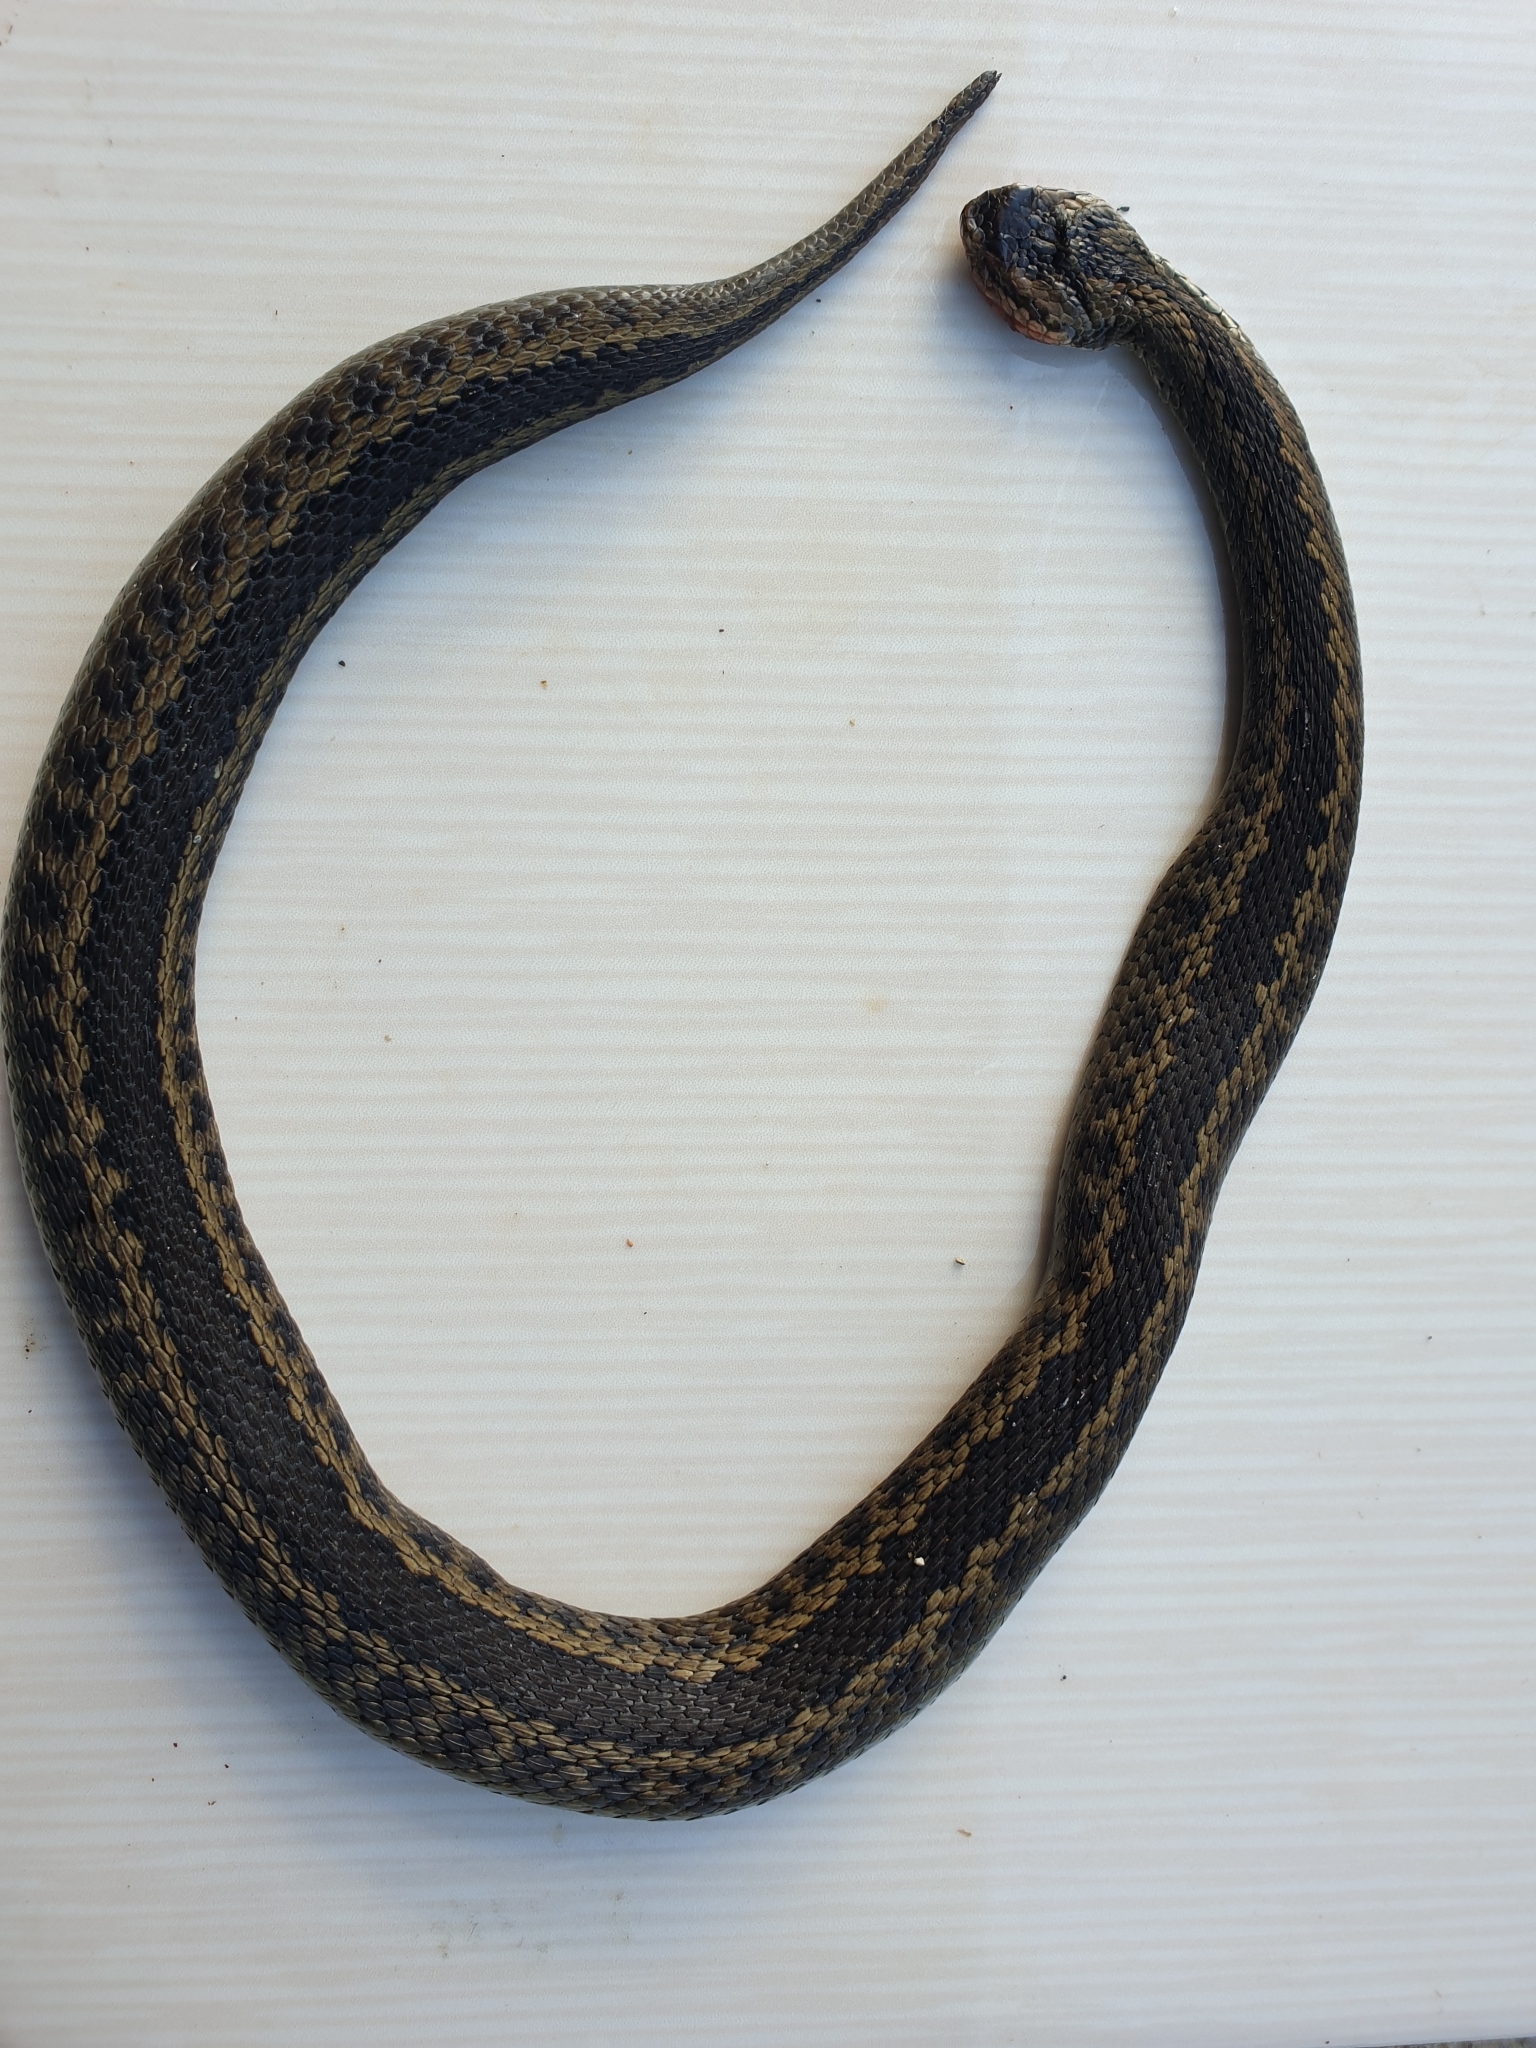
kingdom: Animalia
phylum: Chordata
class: Squamata
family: Viperidae
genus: Vipera
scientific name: Vipera lotievi
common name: Lotiev's viper
